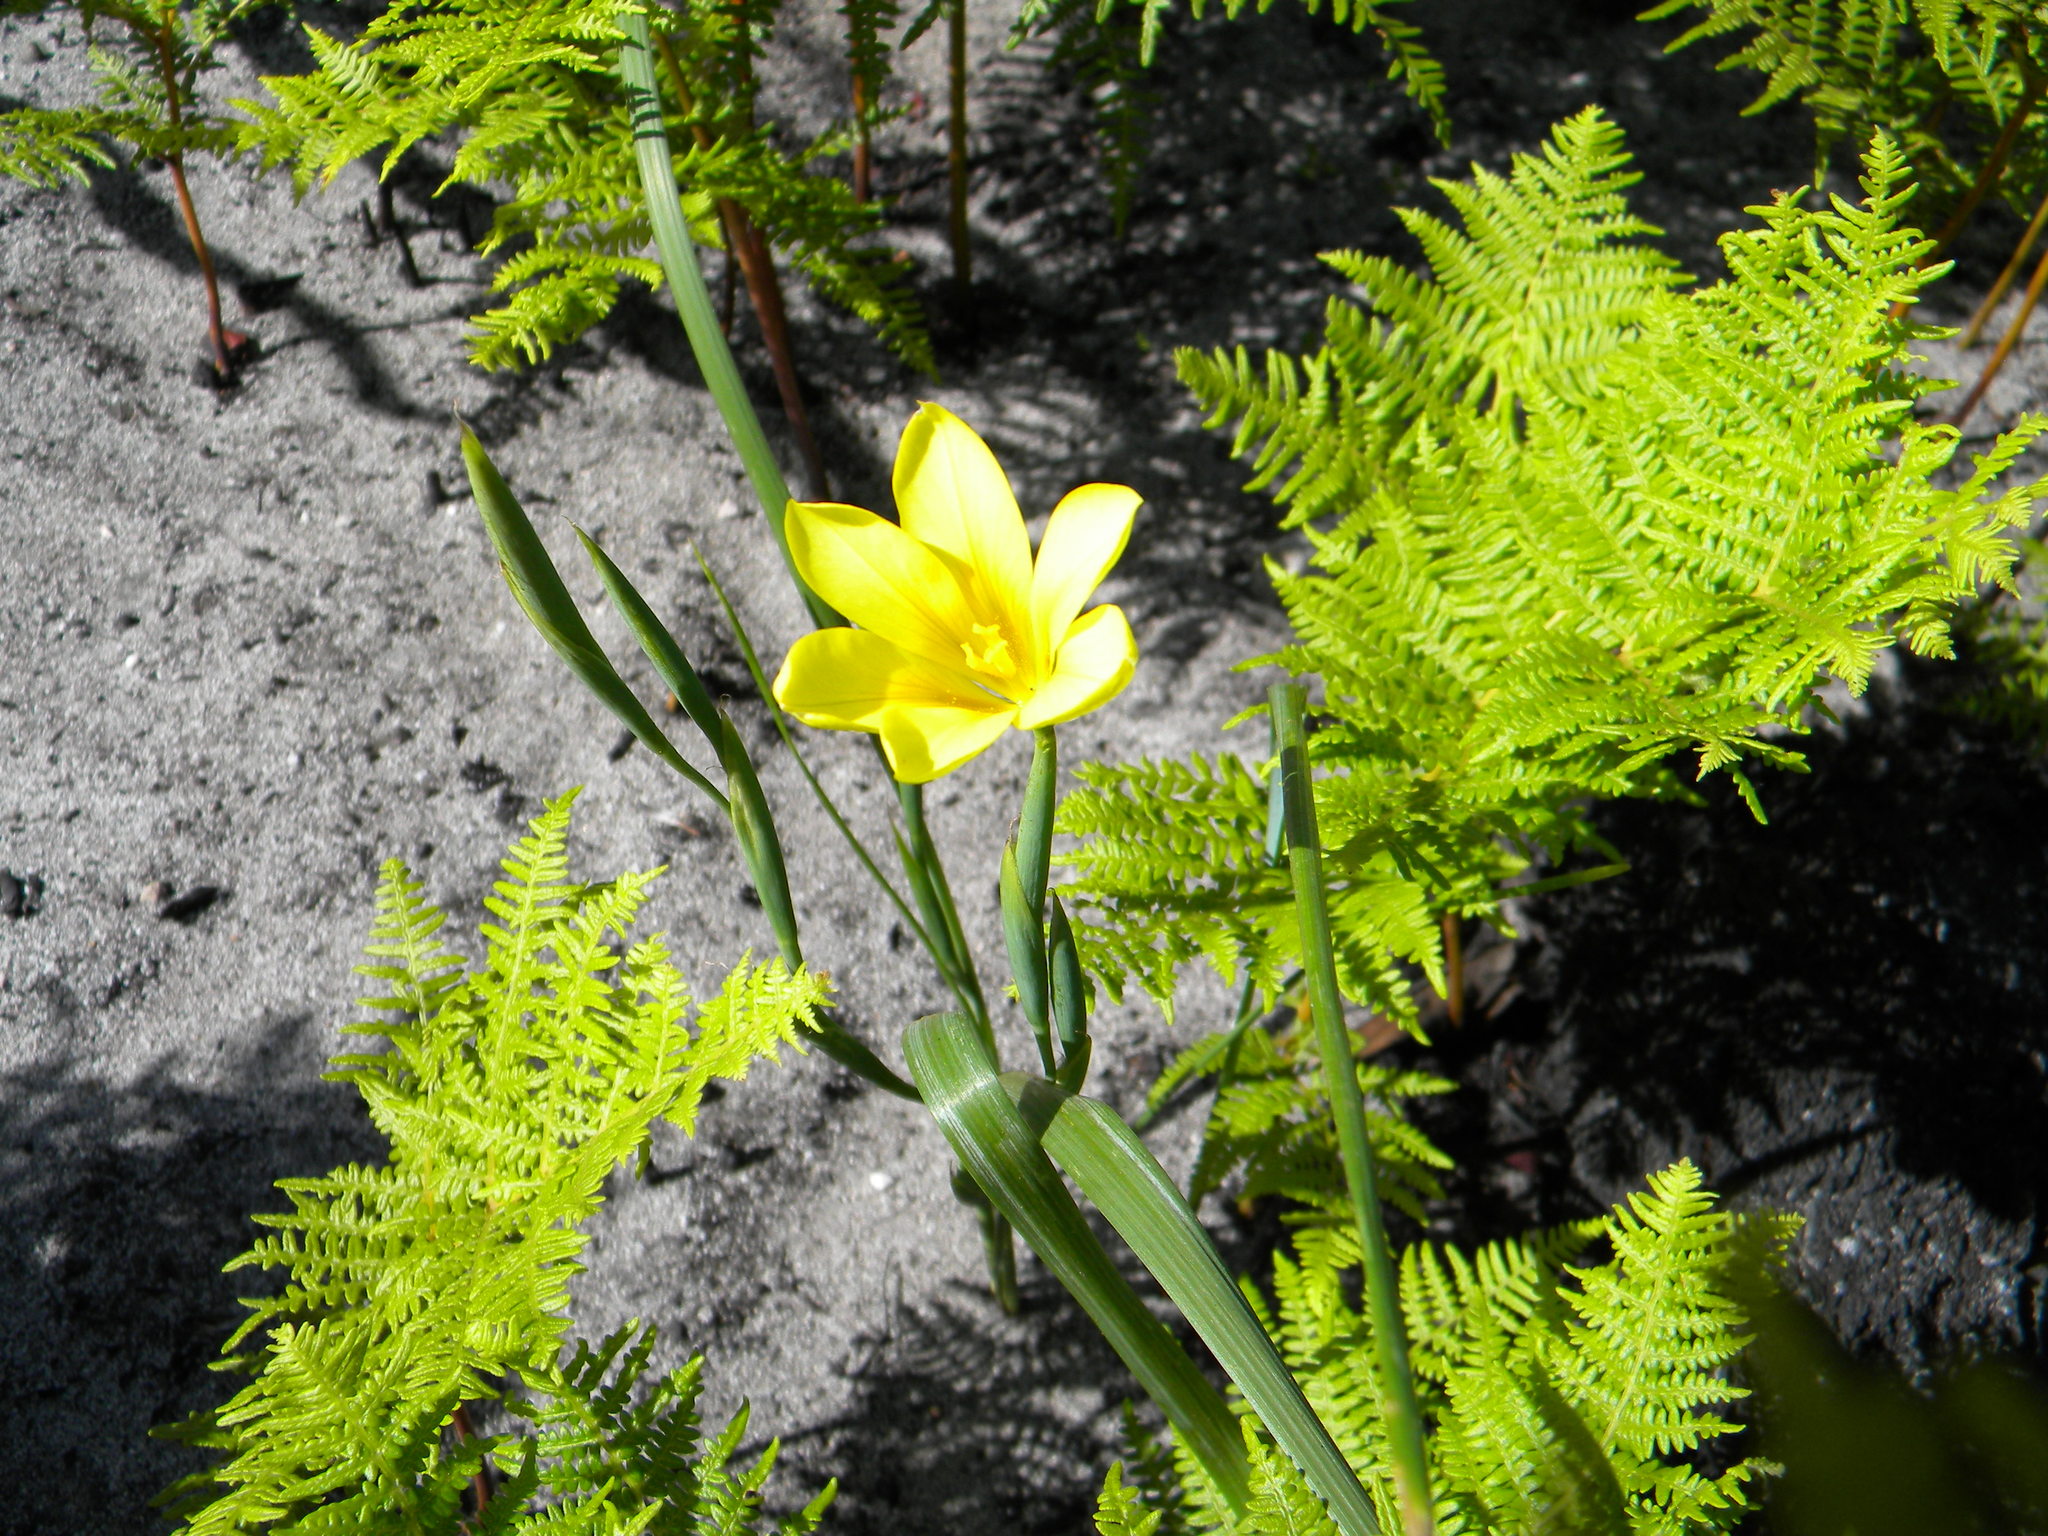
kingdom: Plantae
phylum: Tracheophyta
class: Liliopsida
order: Asparagales
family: Iridaceae
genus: Moraea
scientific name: Moraea ochroleuca
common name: Red tulp
